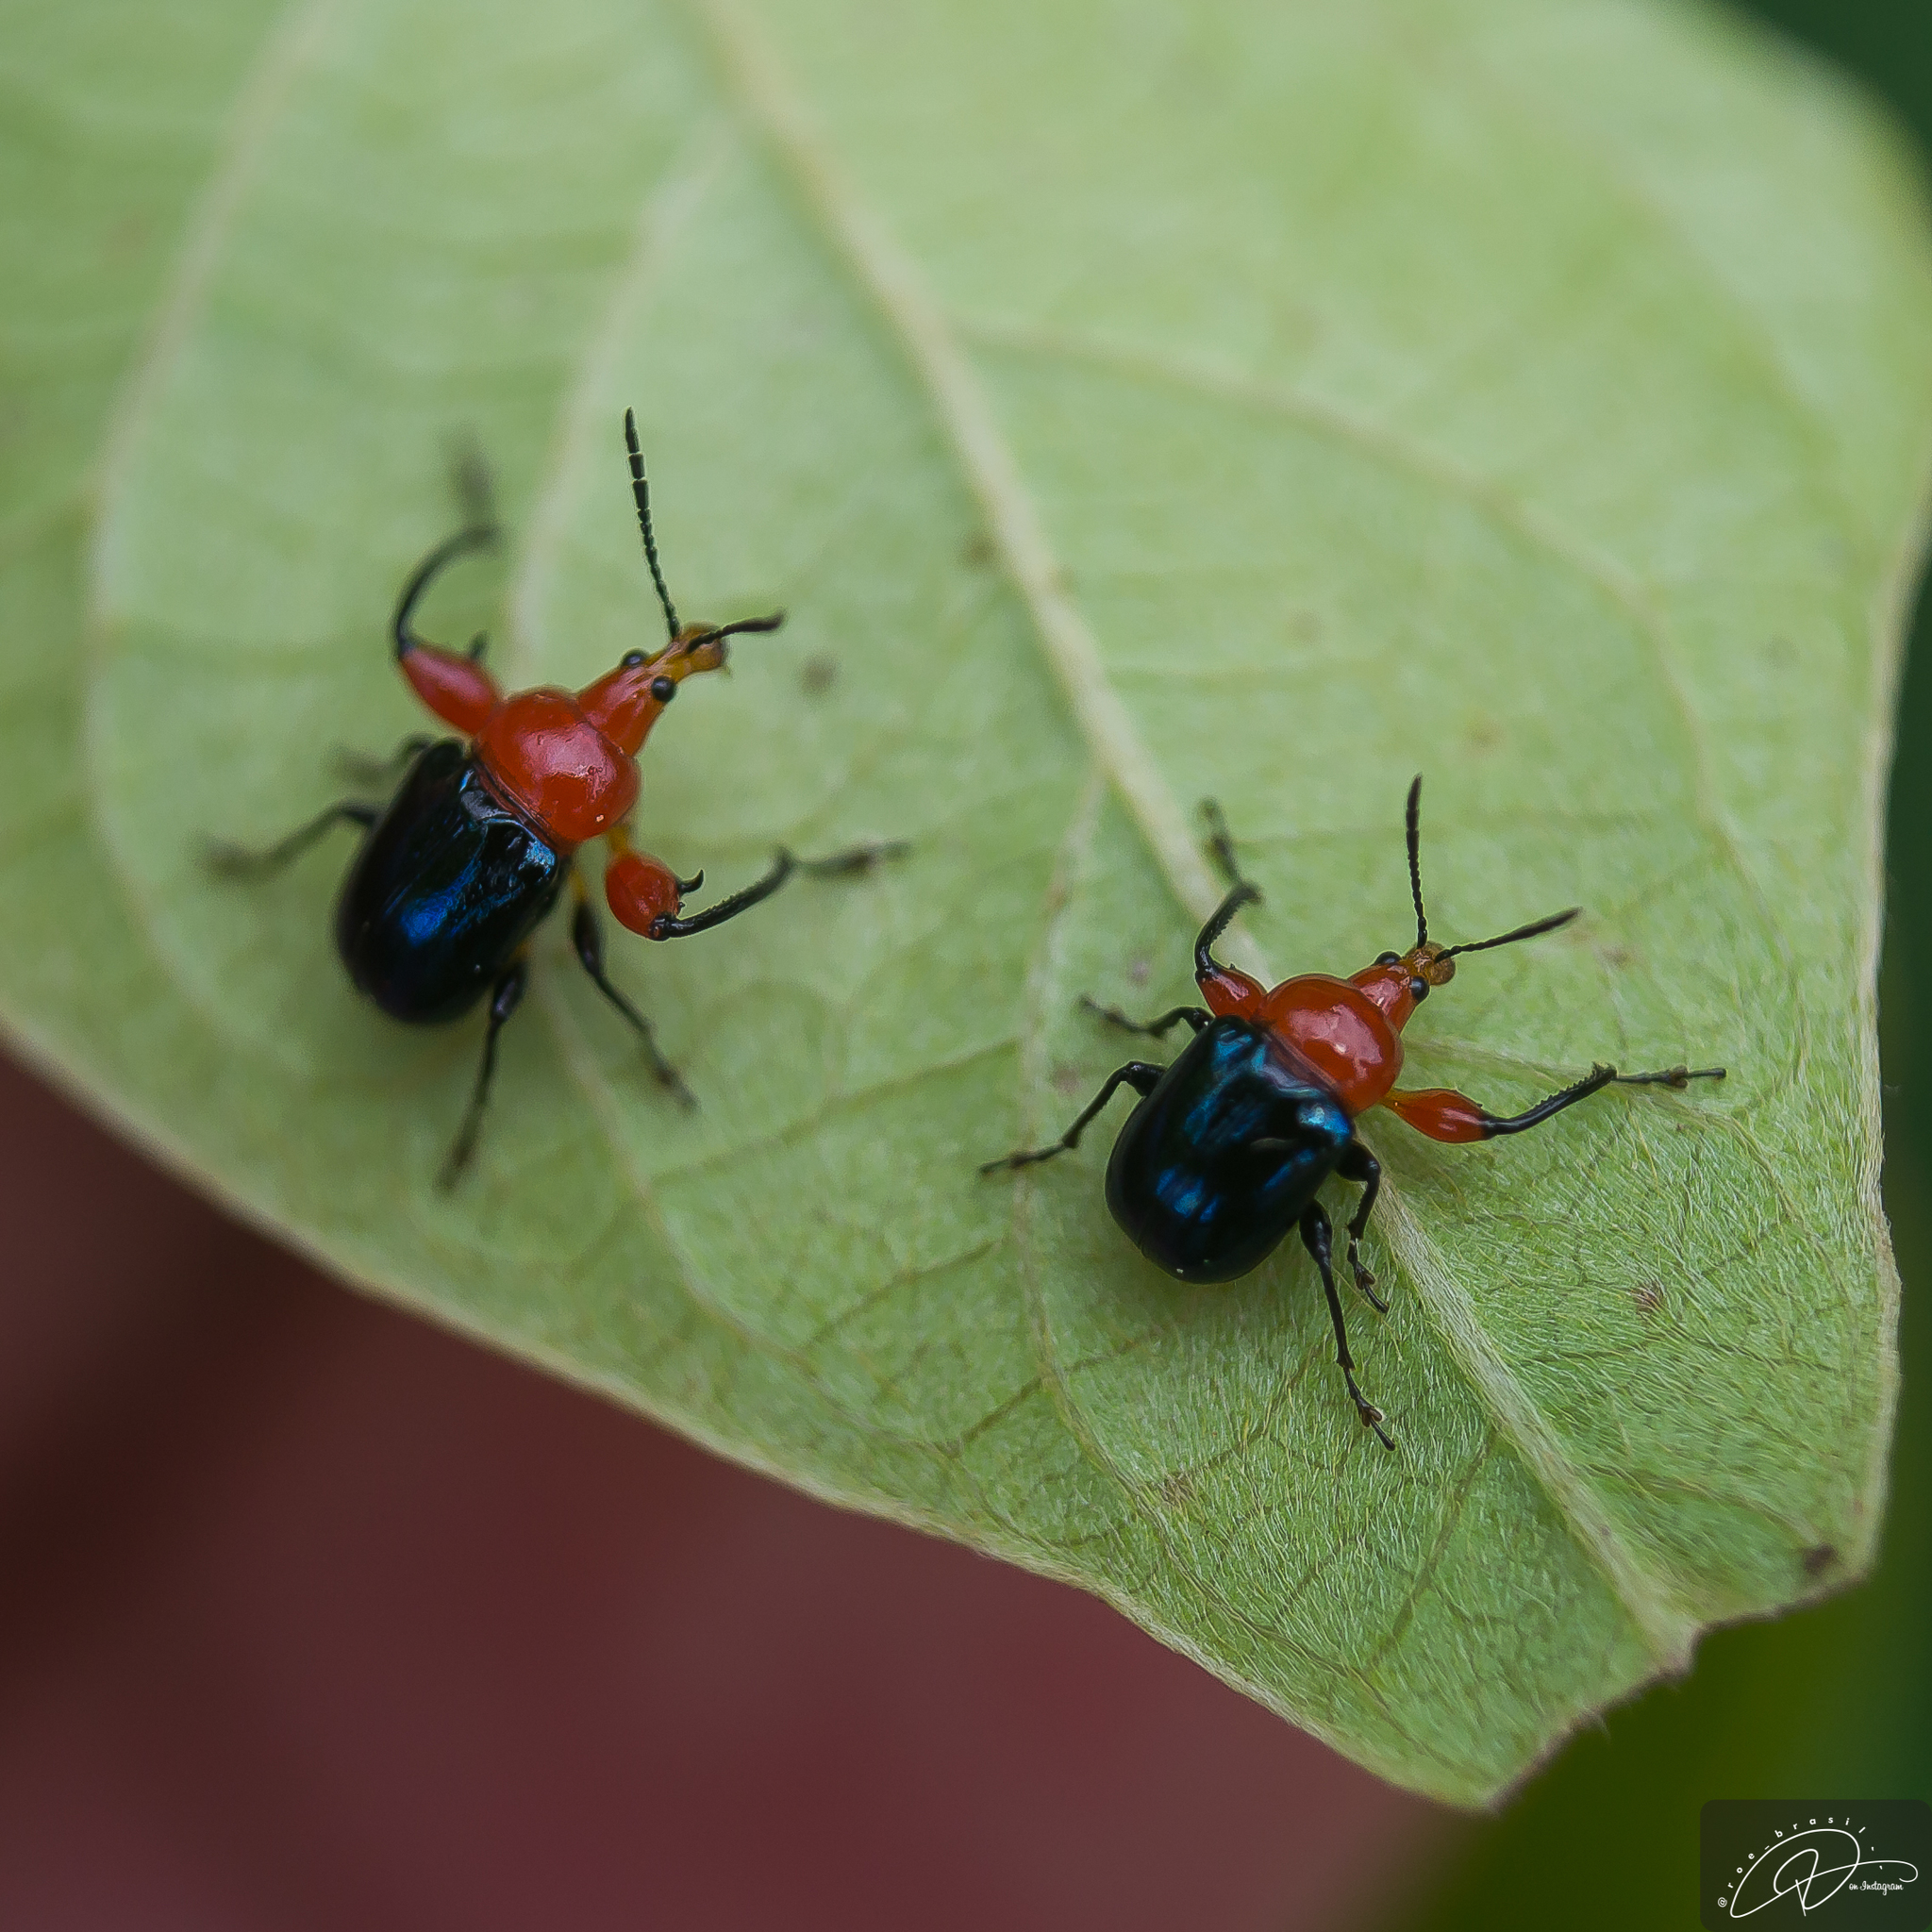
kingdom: Animalia
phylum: Arthropoda
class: Insecta
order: Coleoptera
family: Attelabidae
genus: Alleuscelus
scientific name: Alleuscelus violaceipennis
